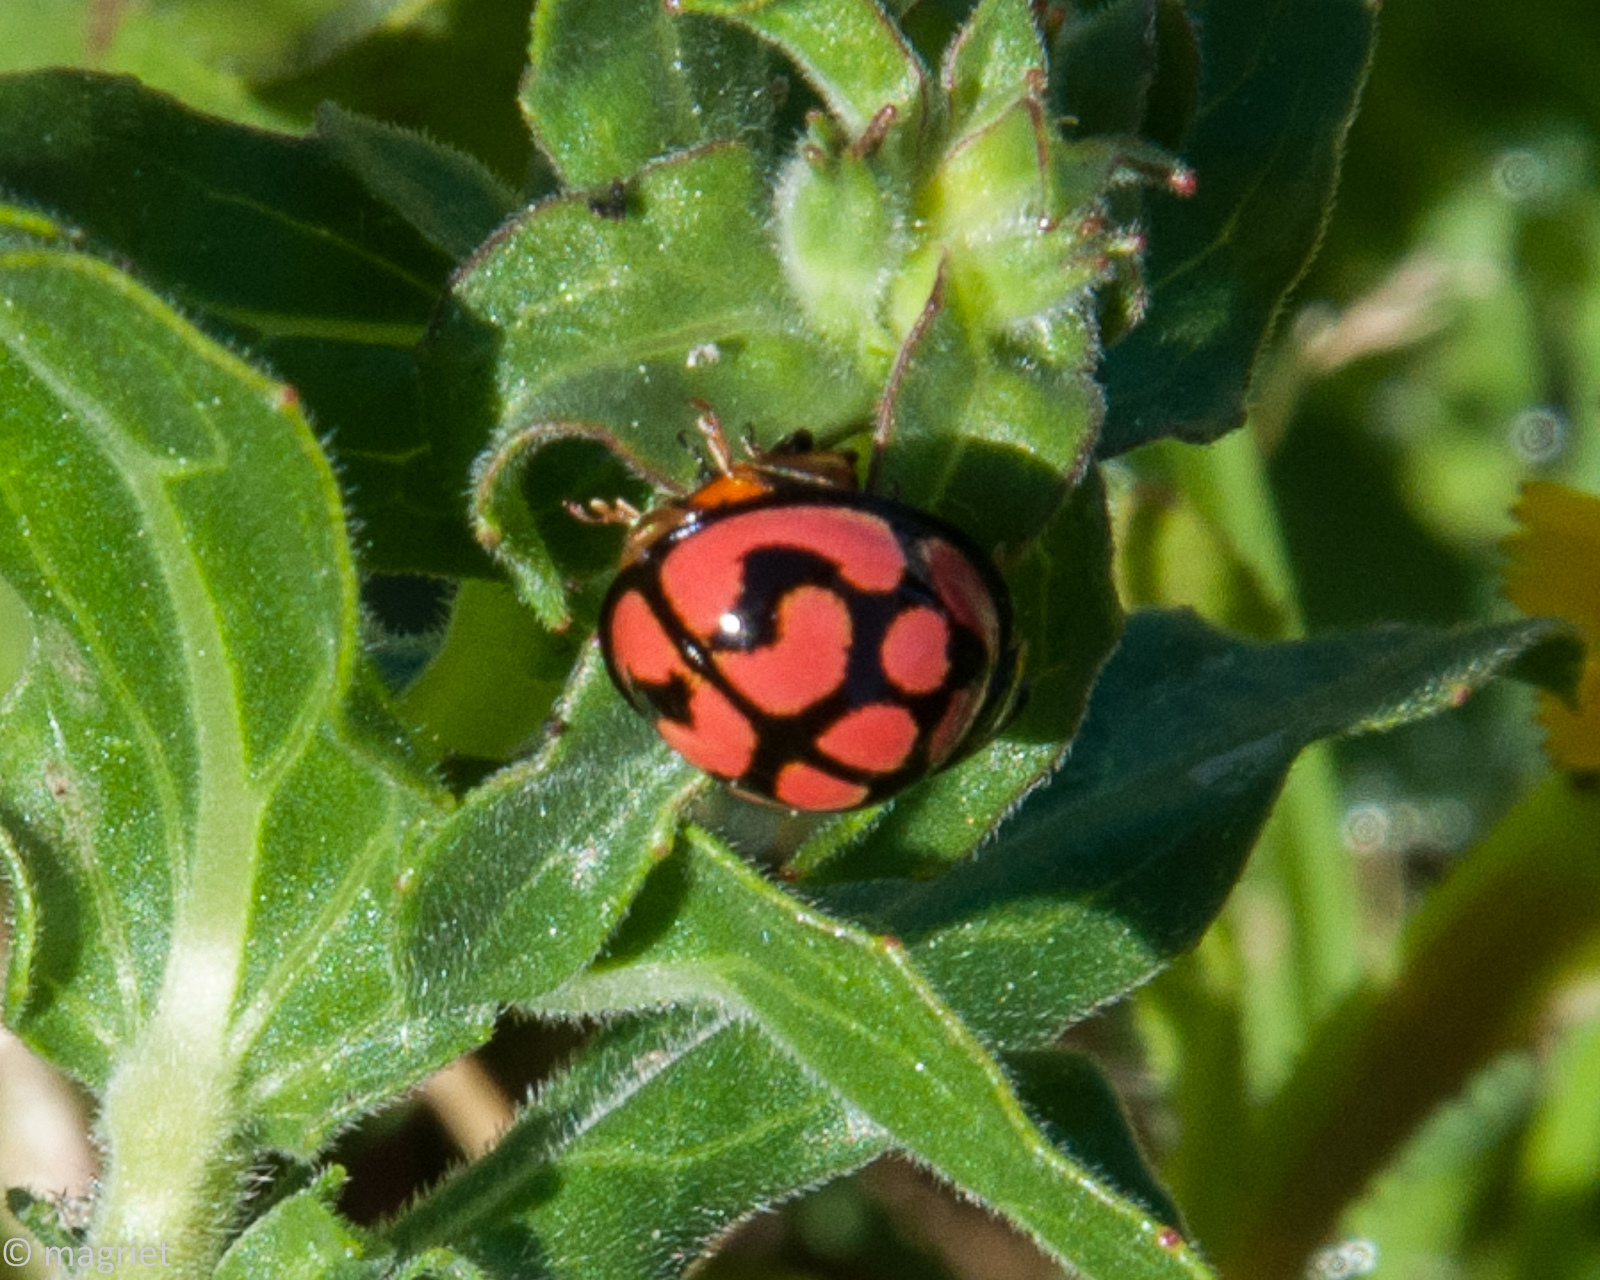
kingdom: Animalia
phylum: Arthropoda
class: Insecta
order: Coleoptera
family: Coccinellidae
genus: Cheilomenes
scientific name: Cheilomenes lunata
